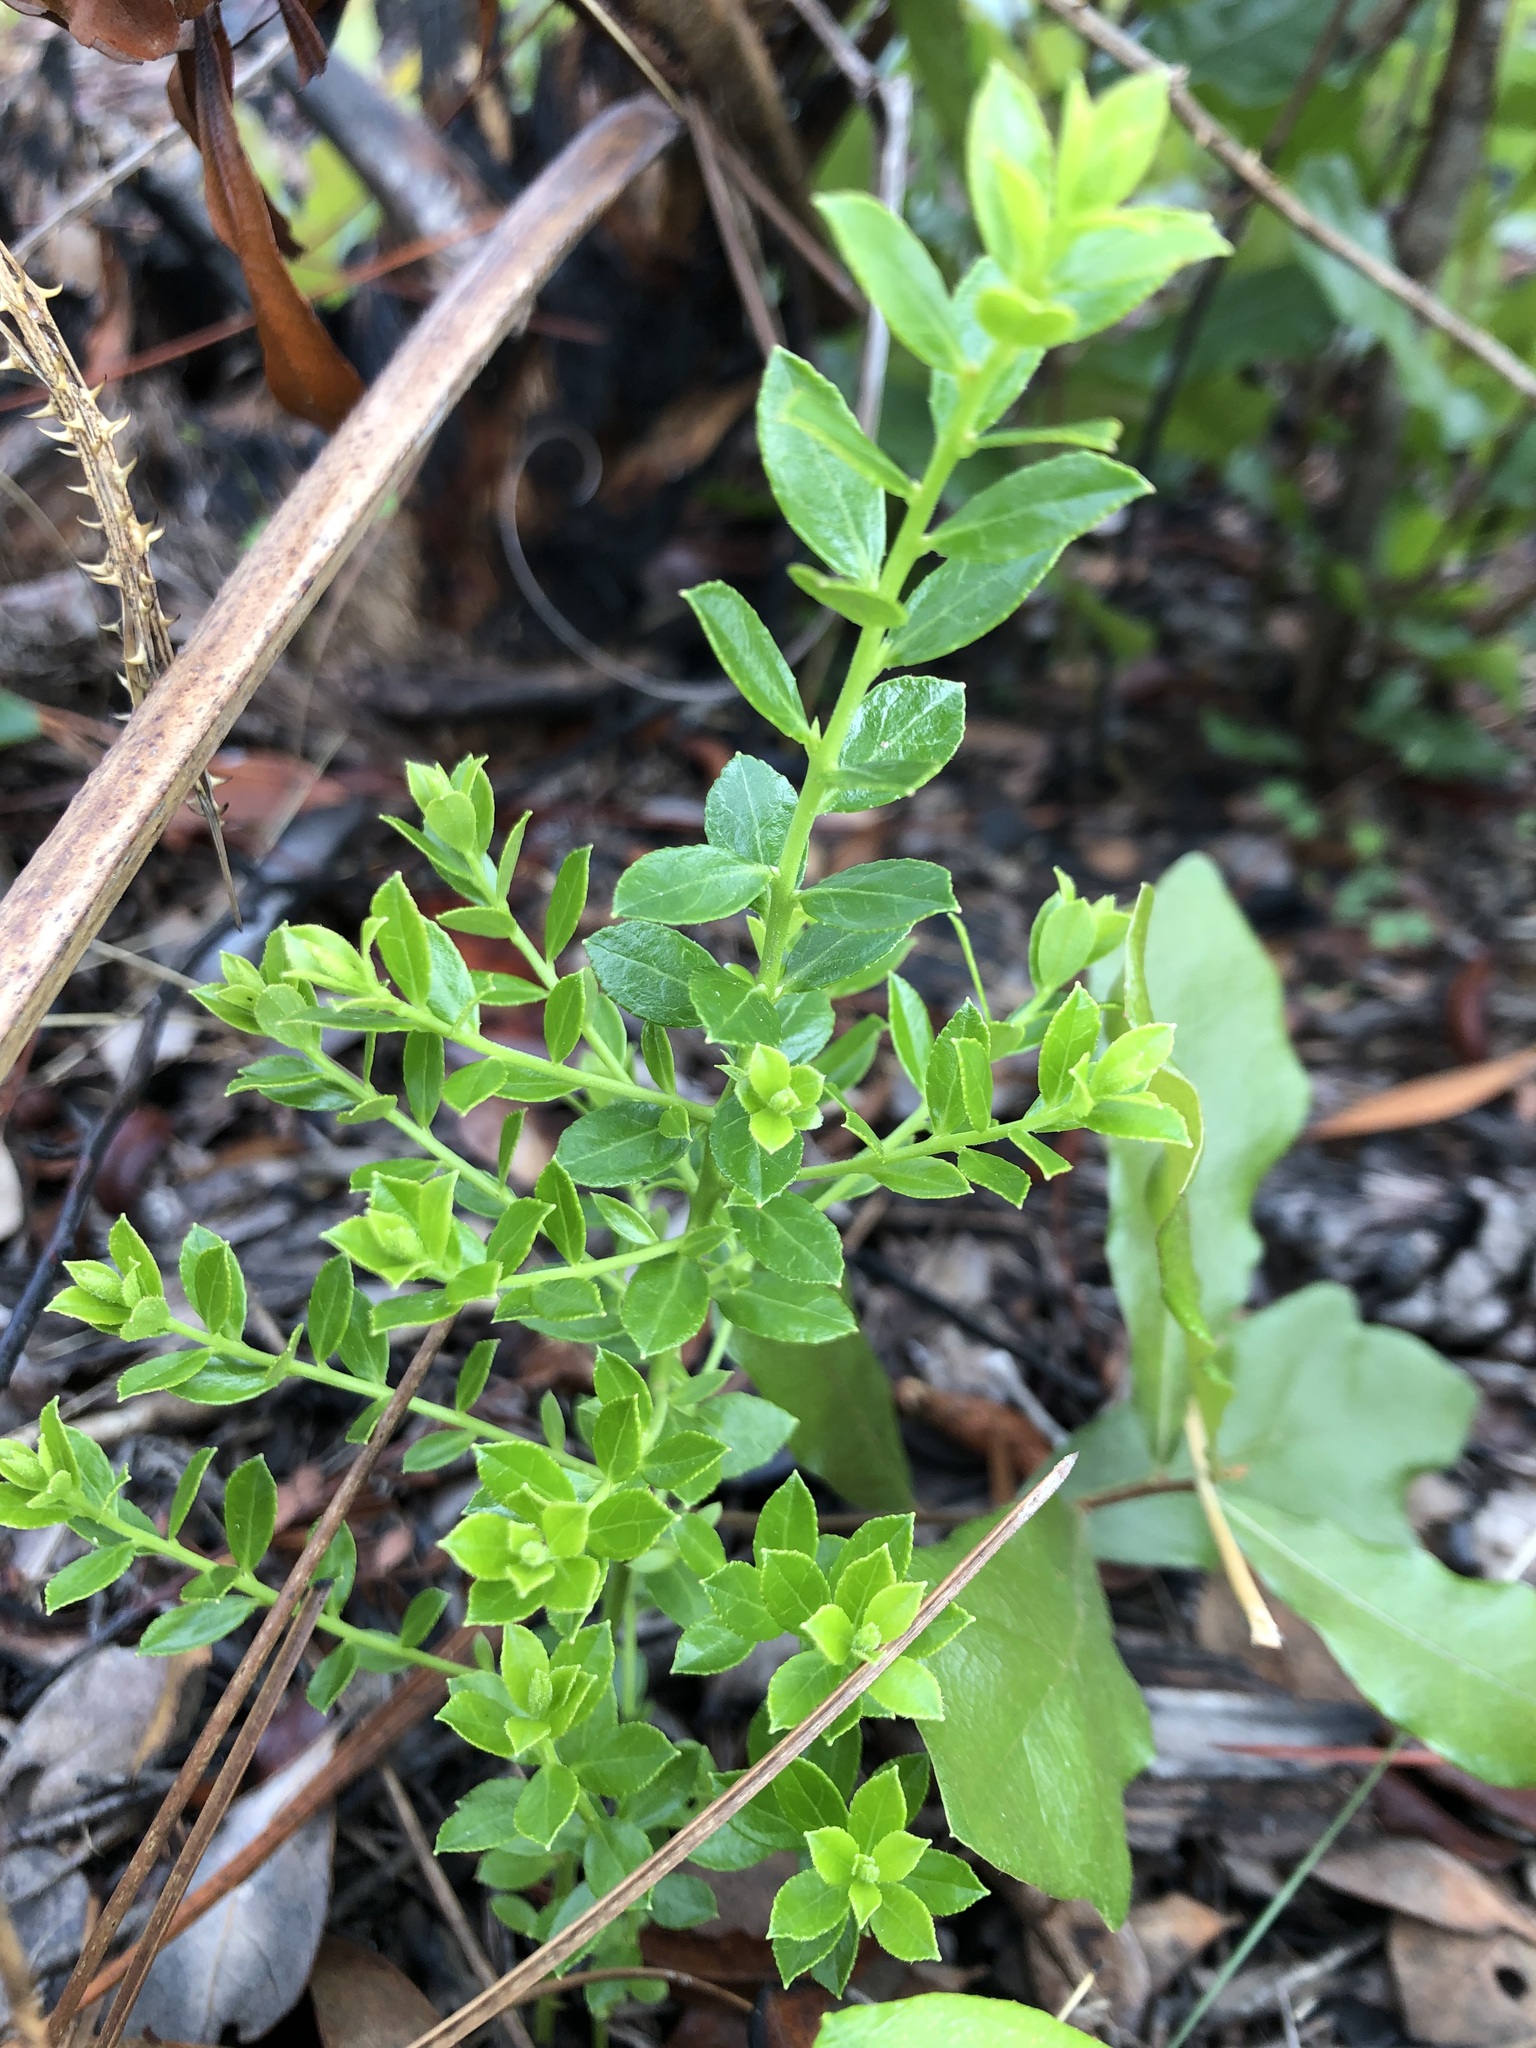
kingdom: Plantae
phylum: Tracheophyta
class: Magnoliopsida
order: Ericales
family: Ericaceae
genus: Vaccinium
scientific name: Vaccinium myrsinites
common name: Evergreen blueberry
